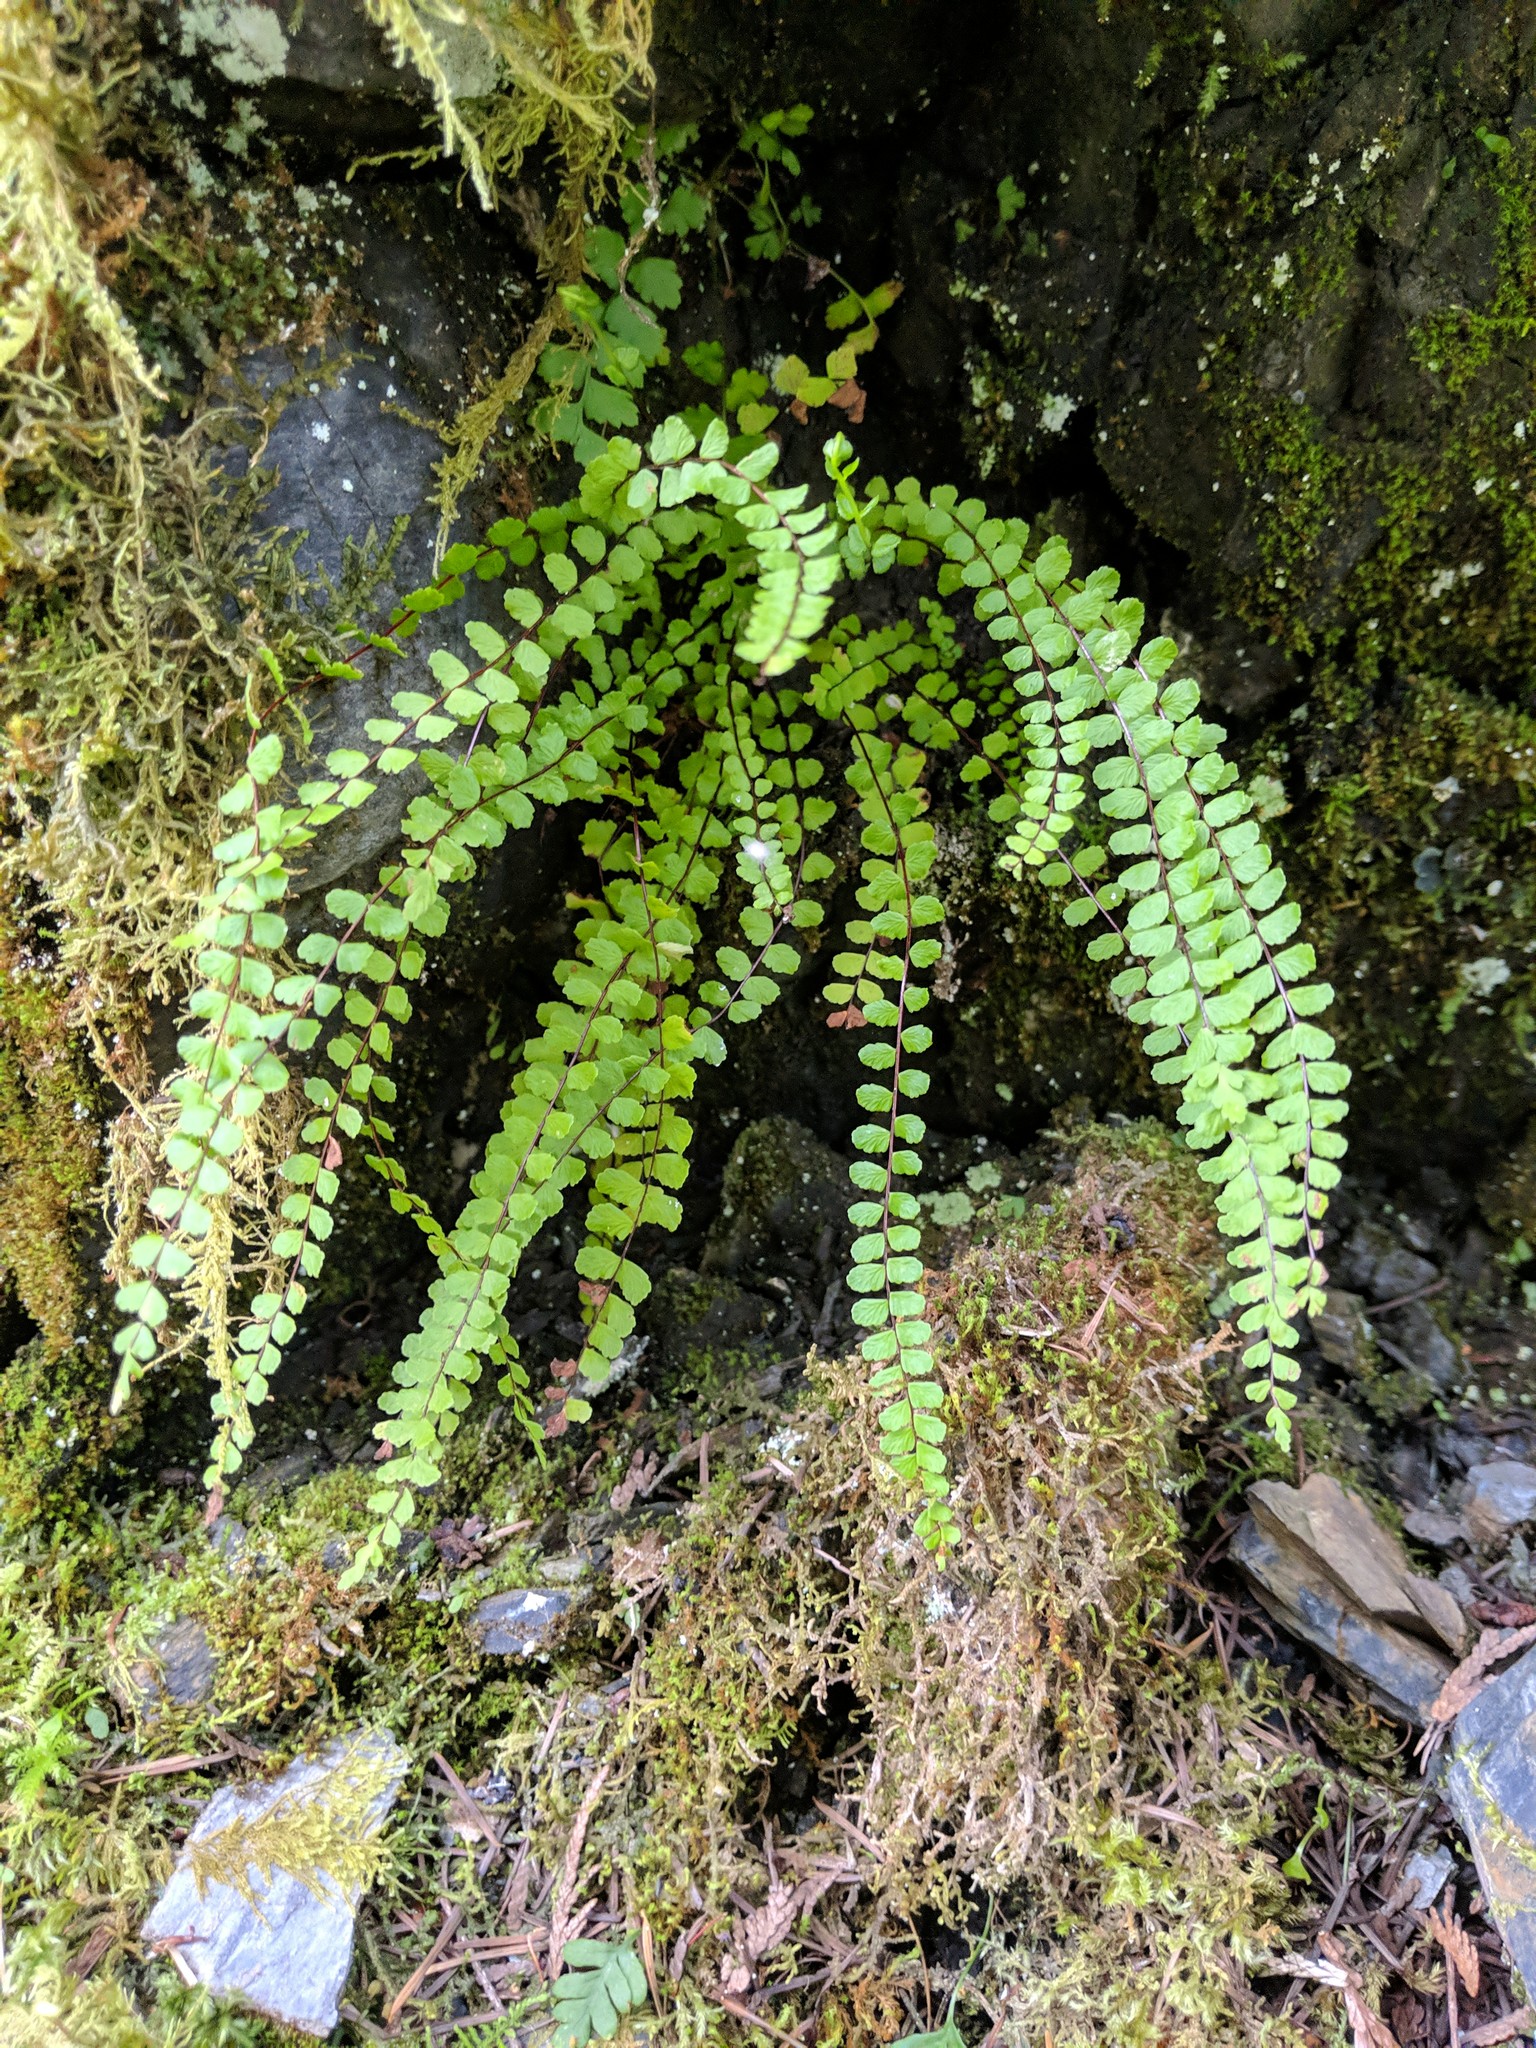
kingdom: Plantae
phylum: Tracheophyta
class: Polypodiopsida
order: Polypodiales
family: Aspleniaceae
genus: Asplenium
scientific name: Asplenium trichomanes
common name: Maidenhair spleenwort
